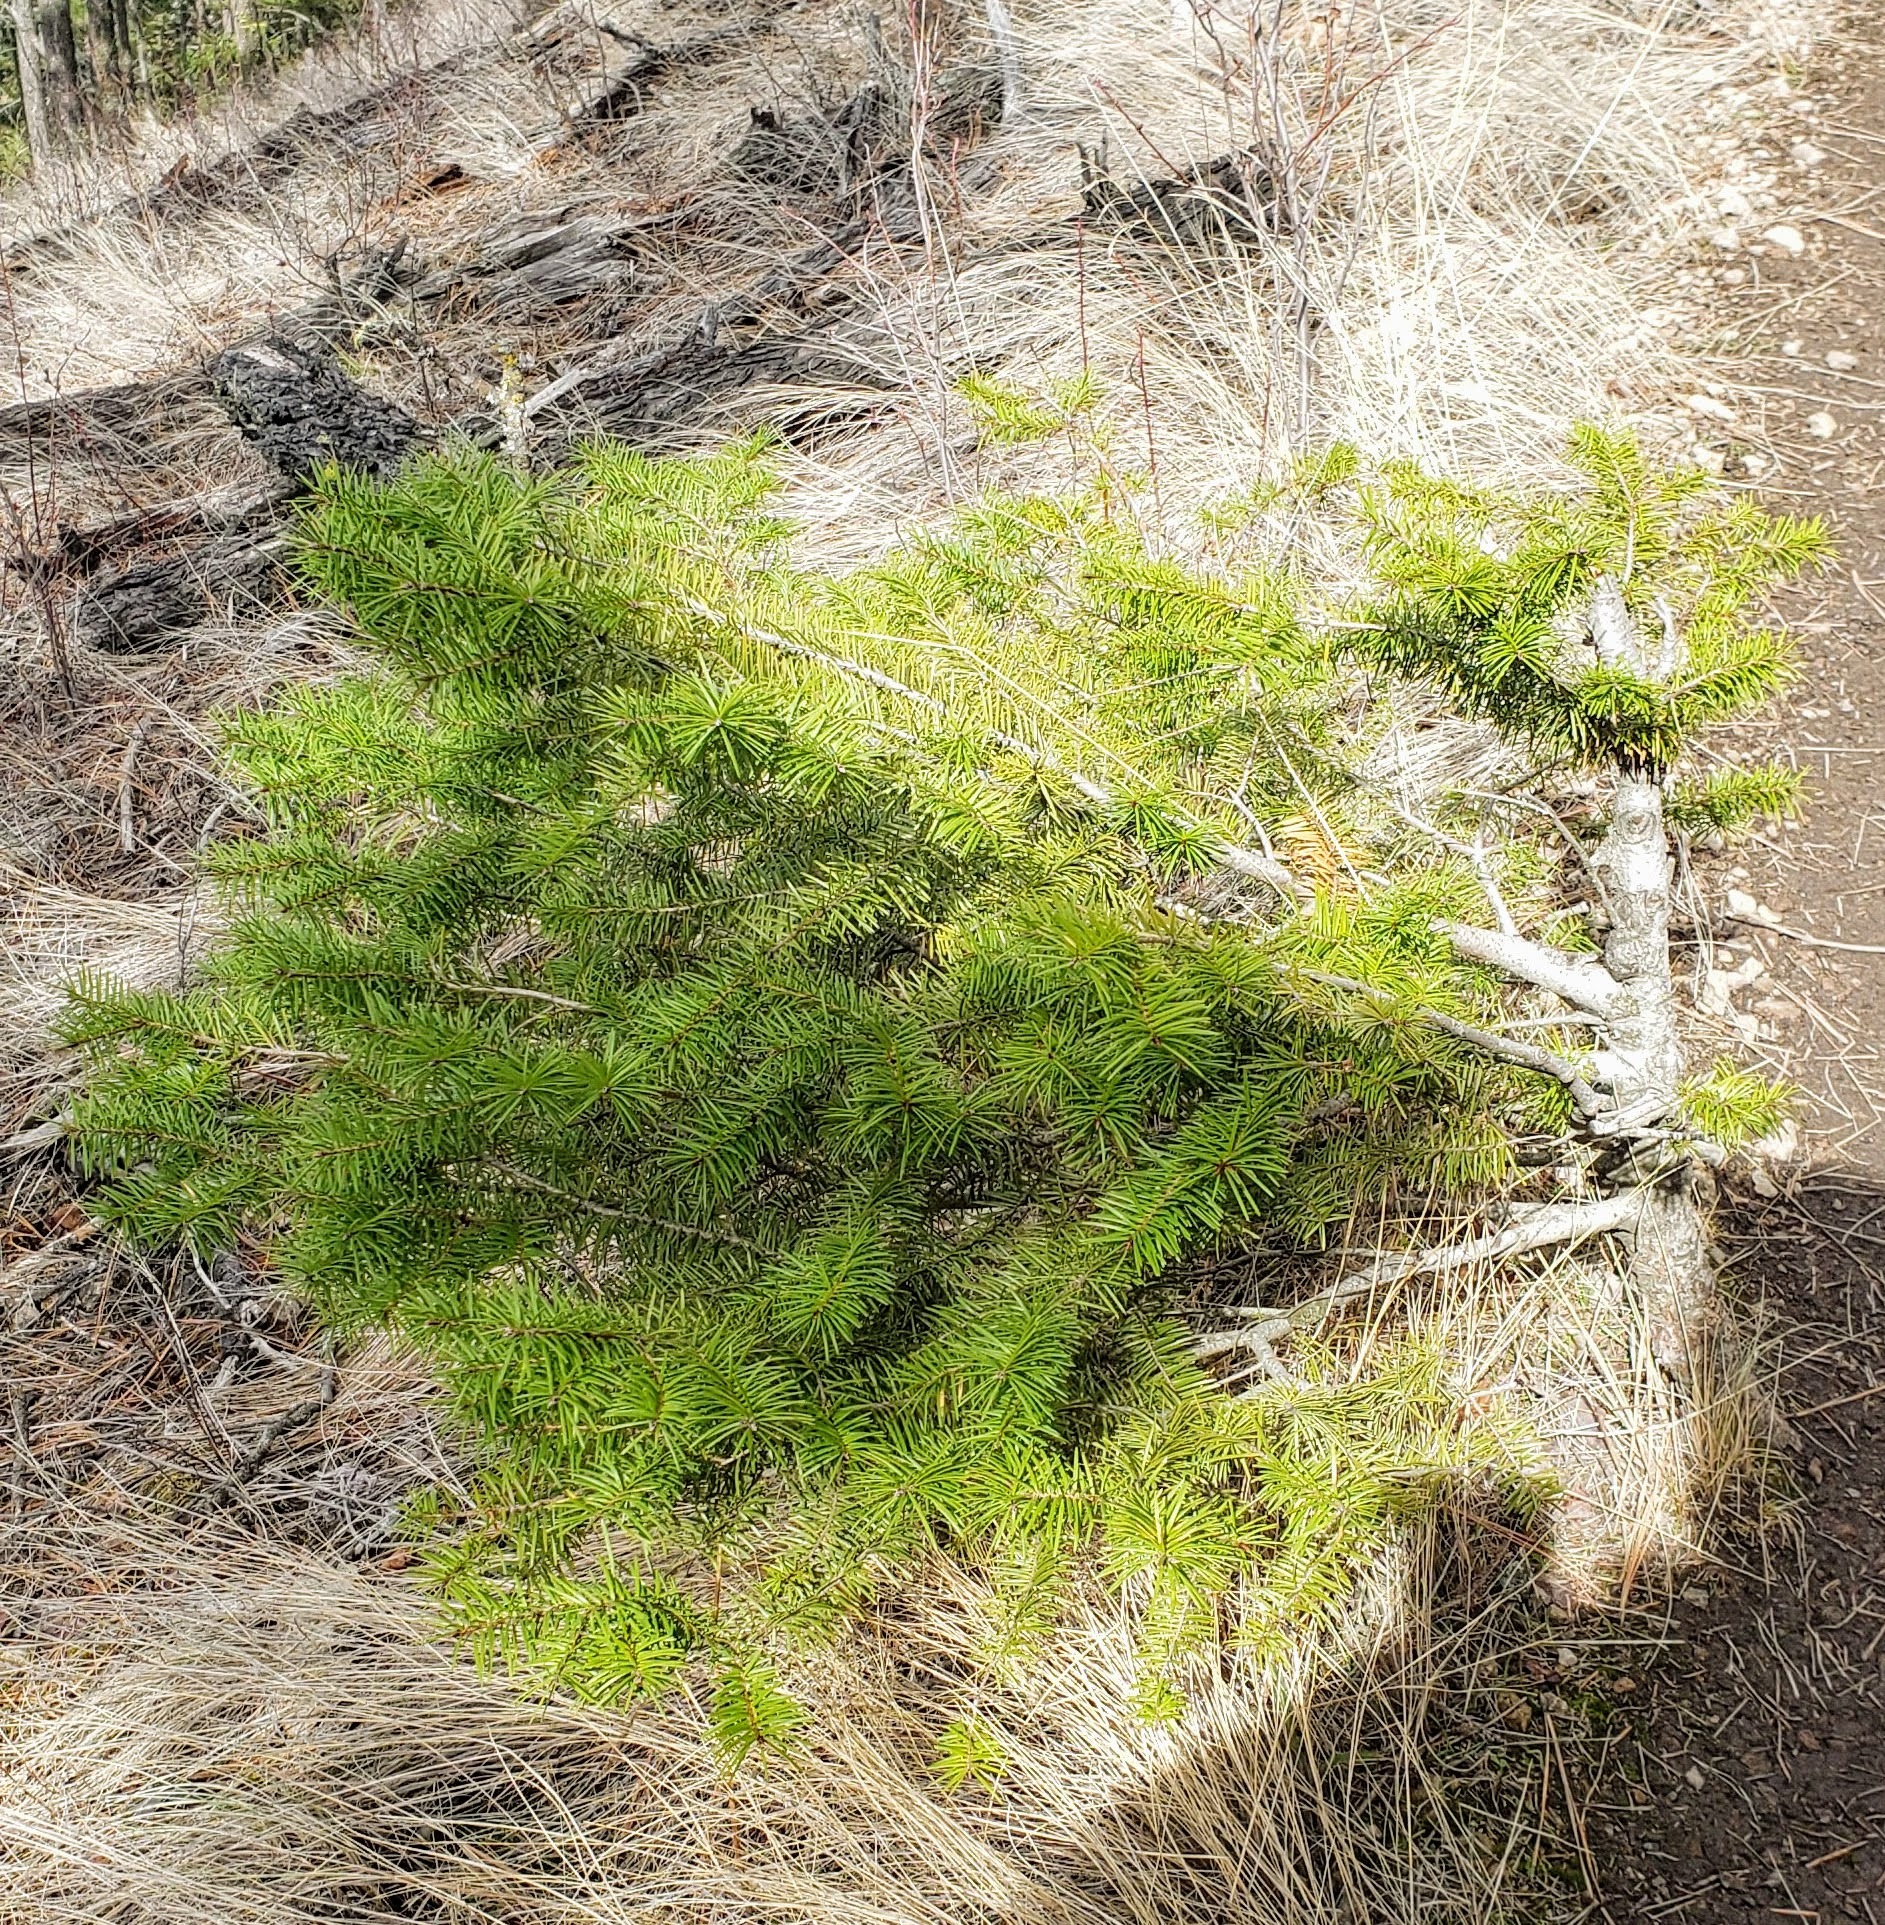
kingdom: Plantae
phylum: Tracheophyta
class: Pinopsida
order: Pinales
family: Pinaceae
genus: Pseudotsuga
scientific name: Pseudotsuga menziesii
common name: Douglas fir
